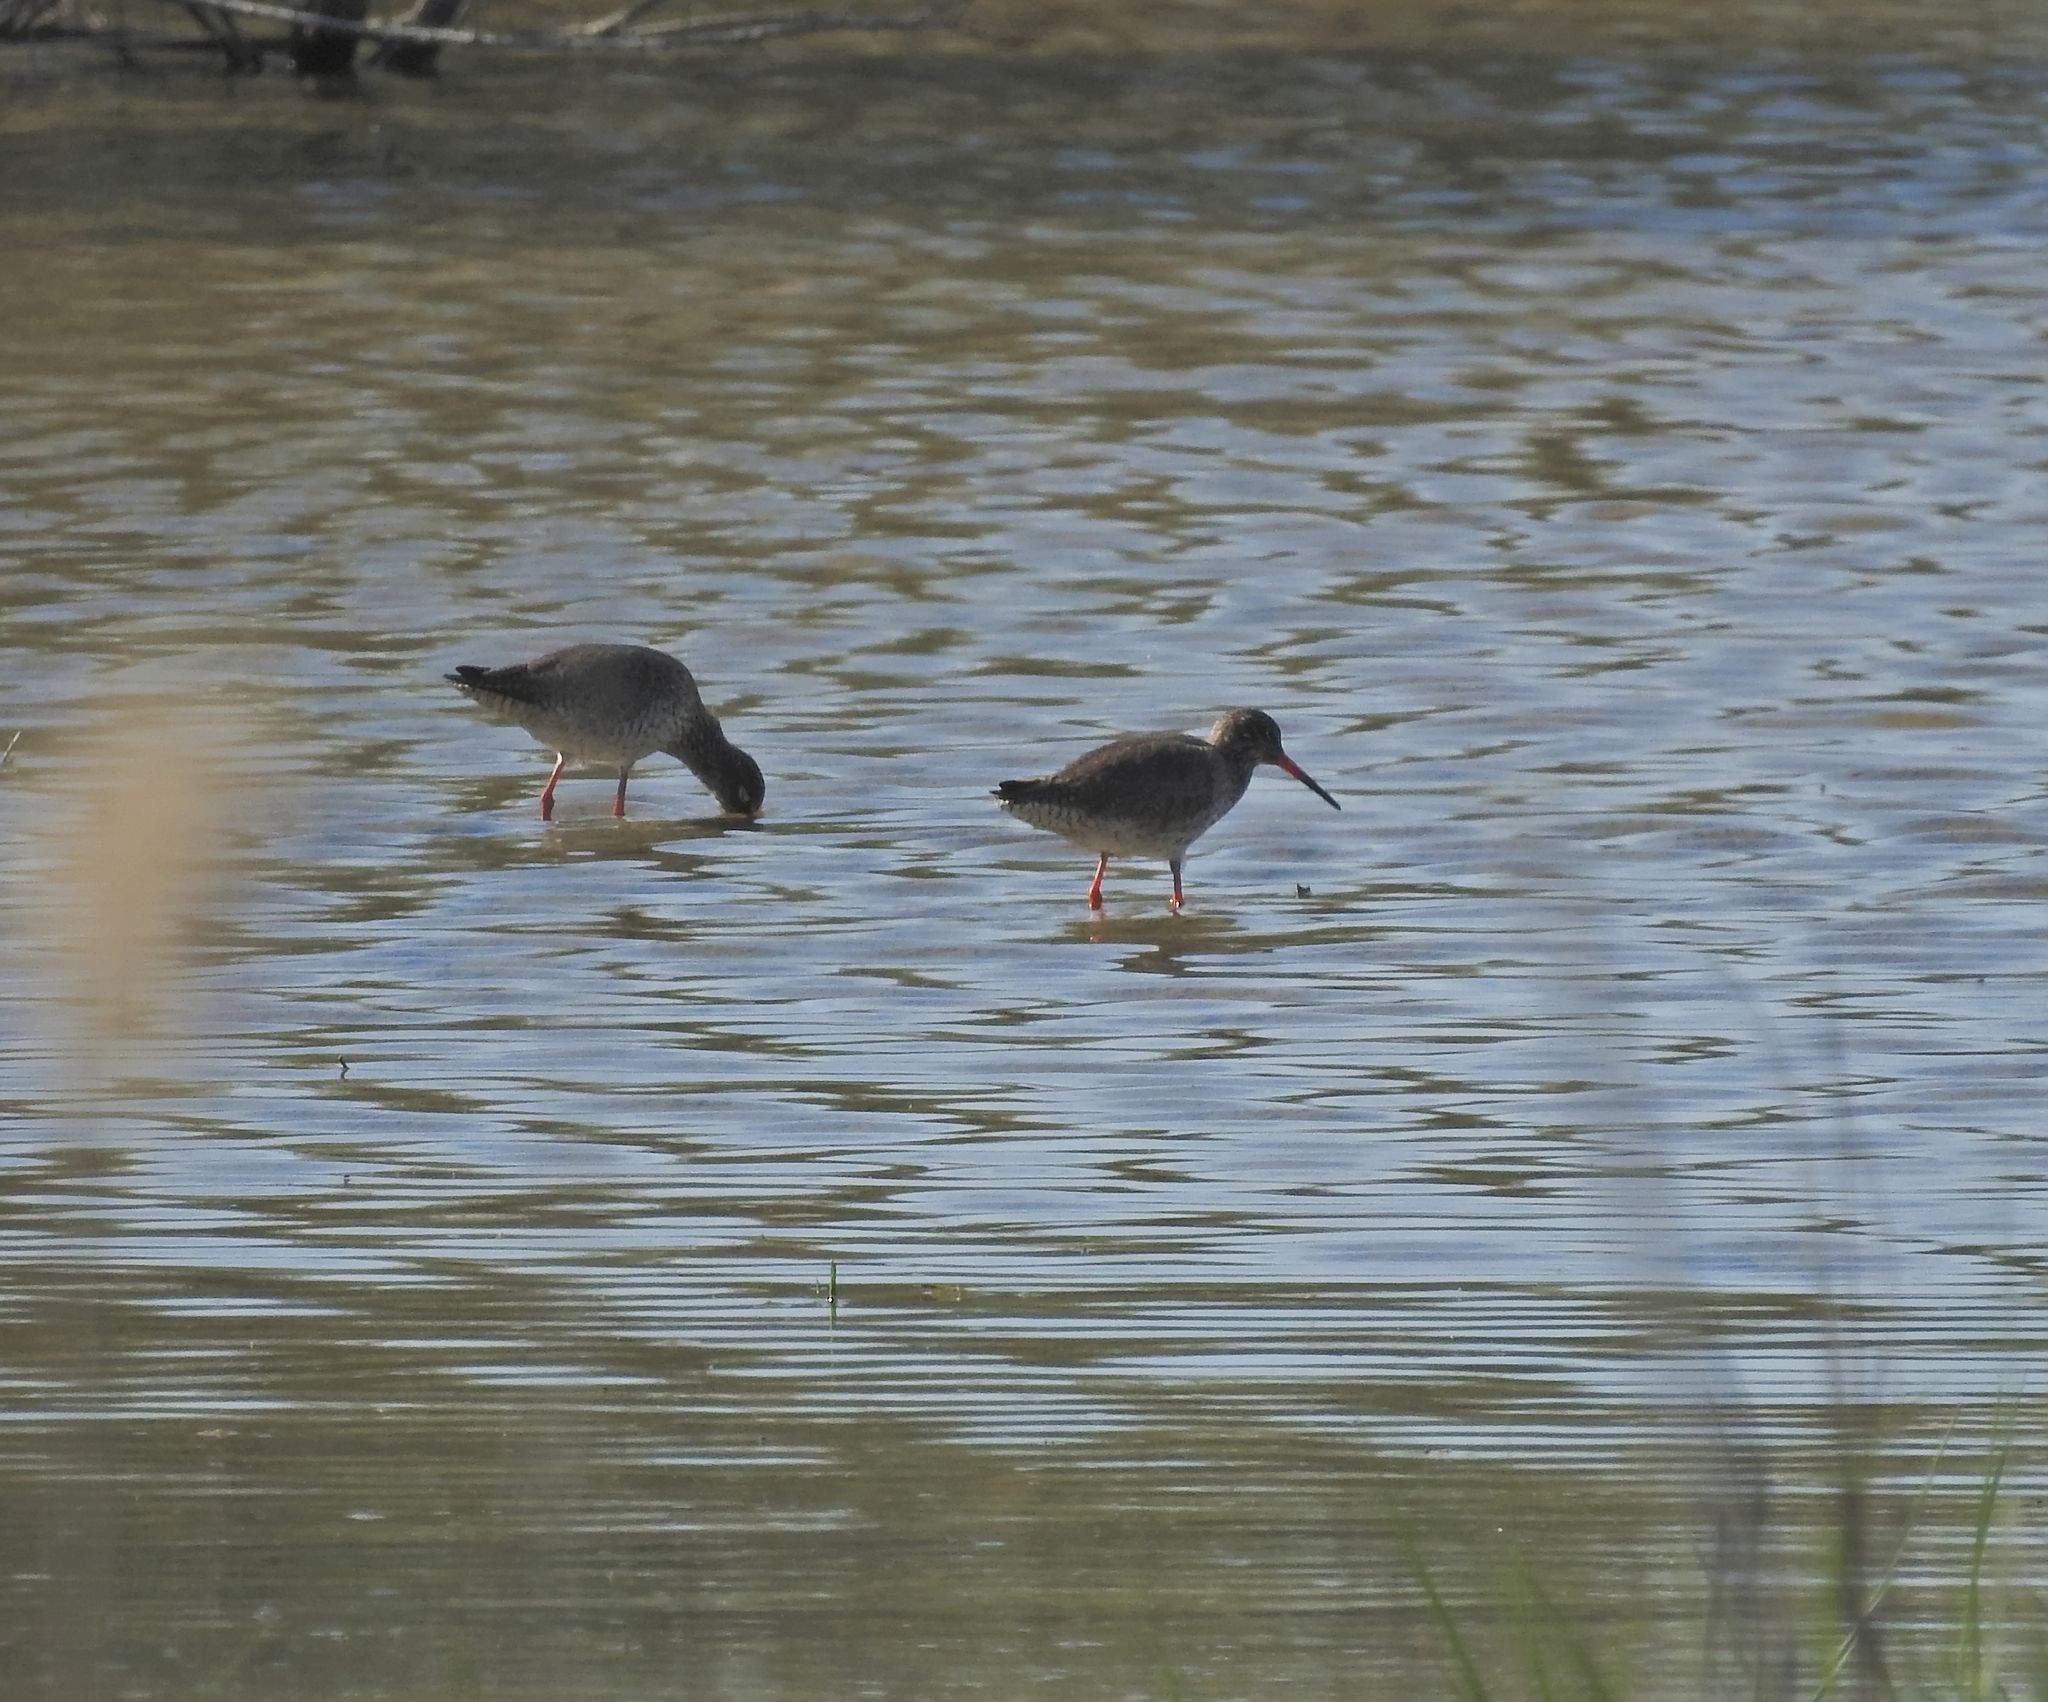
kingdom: Animalia
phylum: Chordata
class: Aves
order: Charadriiformes
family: Scolopacidae
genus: Tringa
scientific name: Tringa totanus
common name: Common redshank
